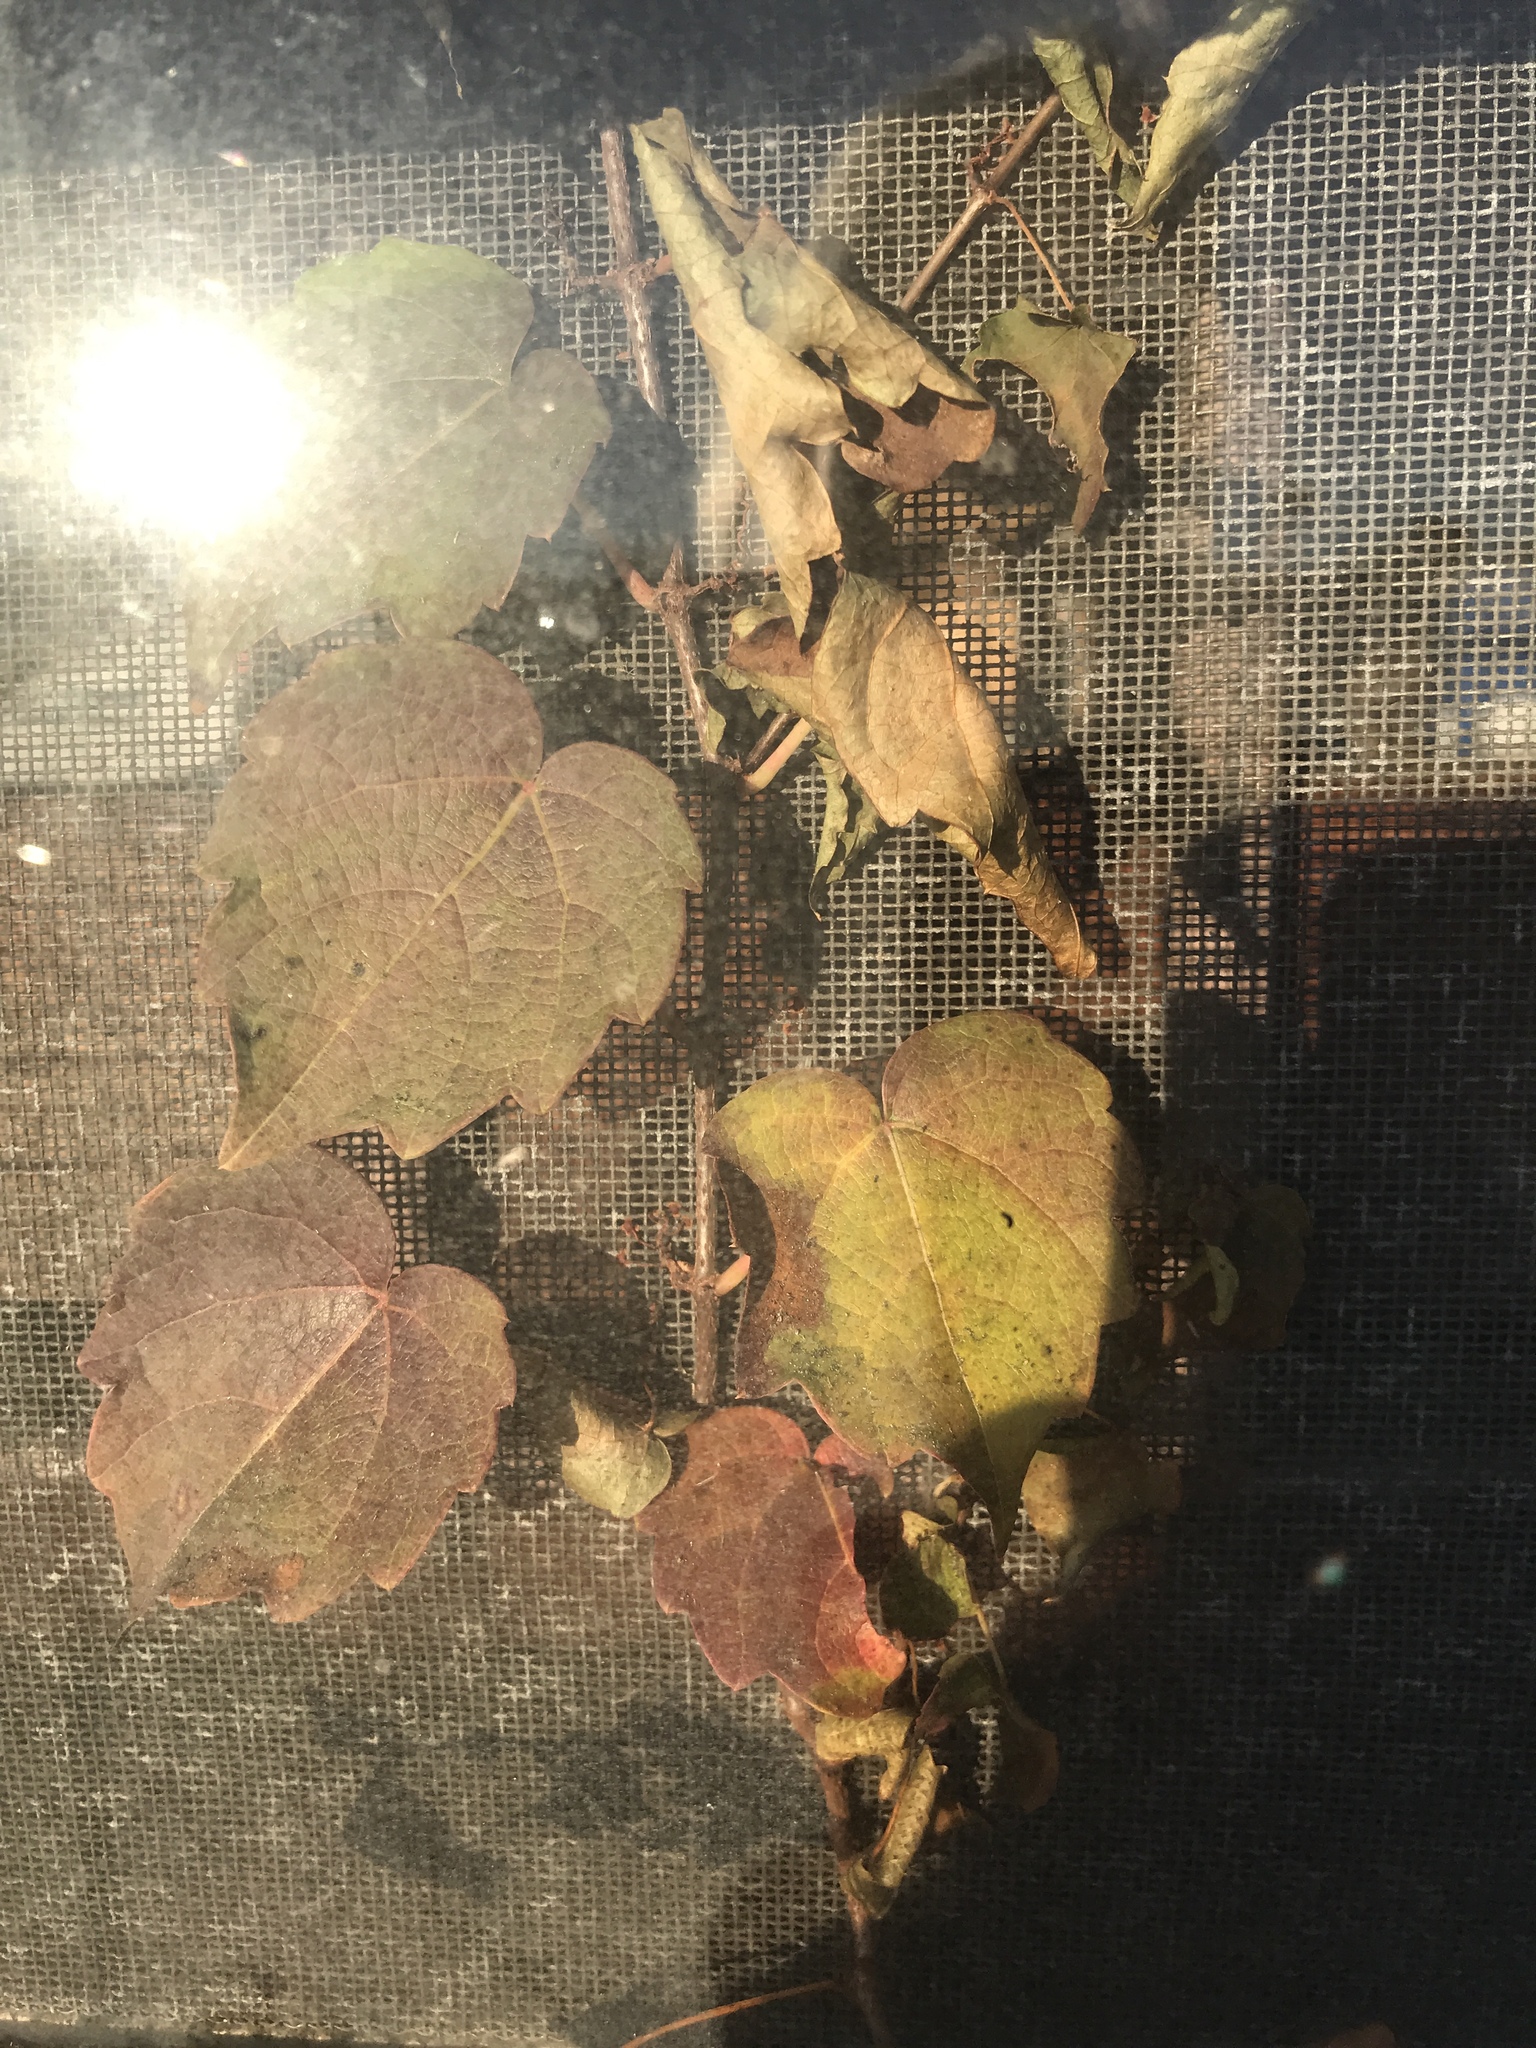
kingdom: Plantae
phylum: Tracheophyta
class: Magnoliopsida
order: Vitales
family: Vitaceae
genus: Parthenocissus
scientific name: Parthenocissus tricuspidata
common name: Boston ivy
